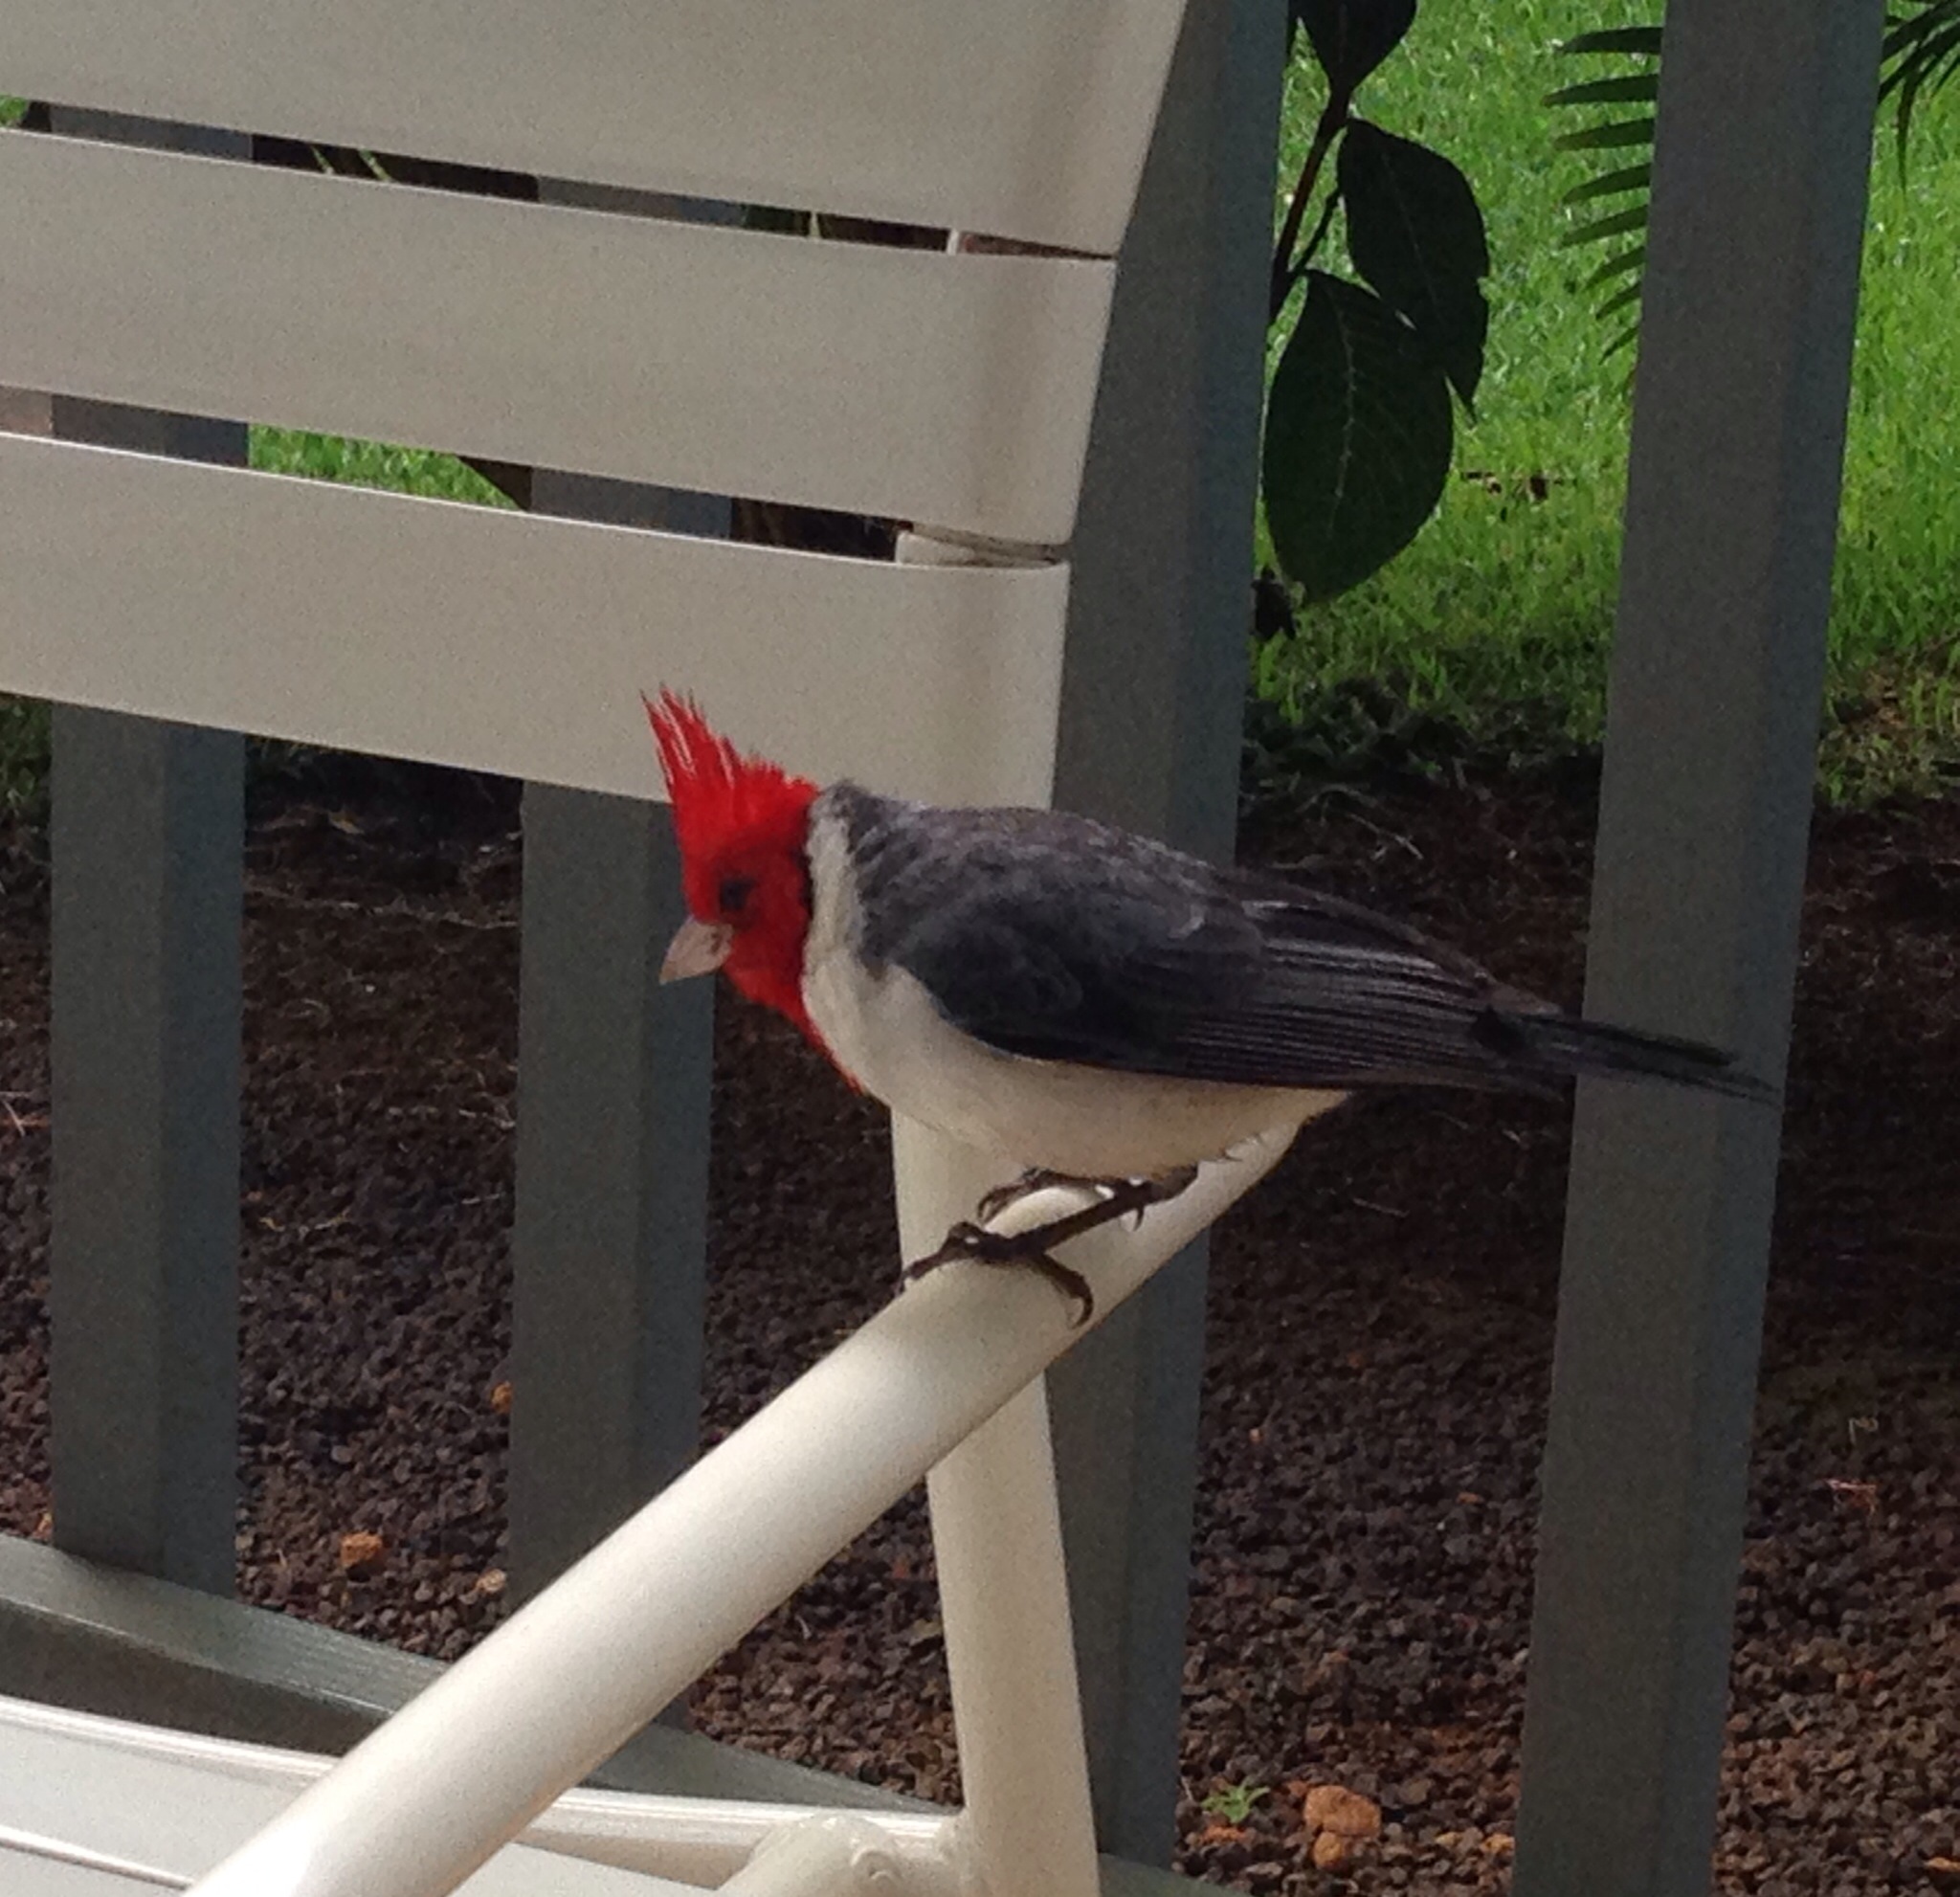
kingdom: Animalia
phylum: Chordata
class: Aves
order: Passeriformes
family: Thraupidae
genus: Paroaria
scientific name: Paroaria coronata
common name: Red-crested cardinal
